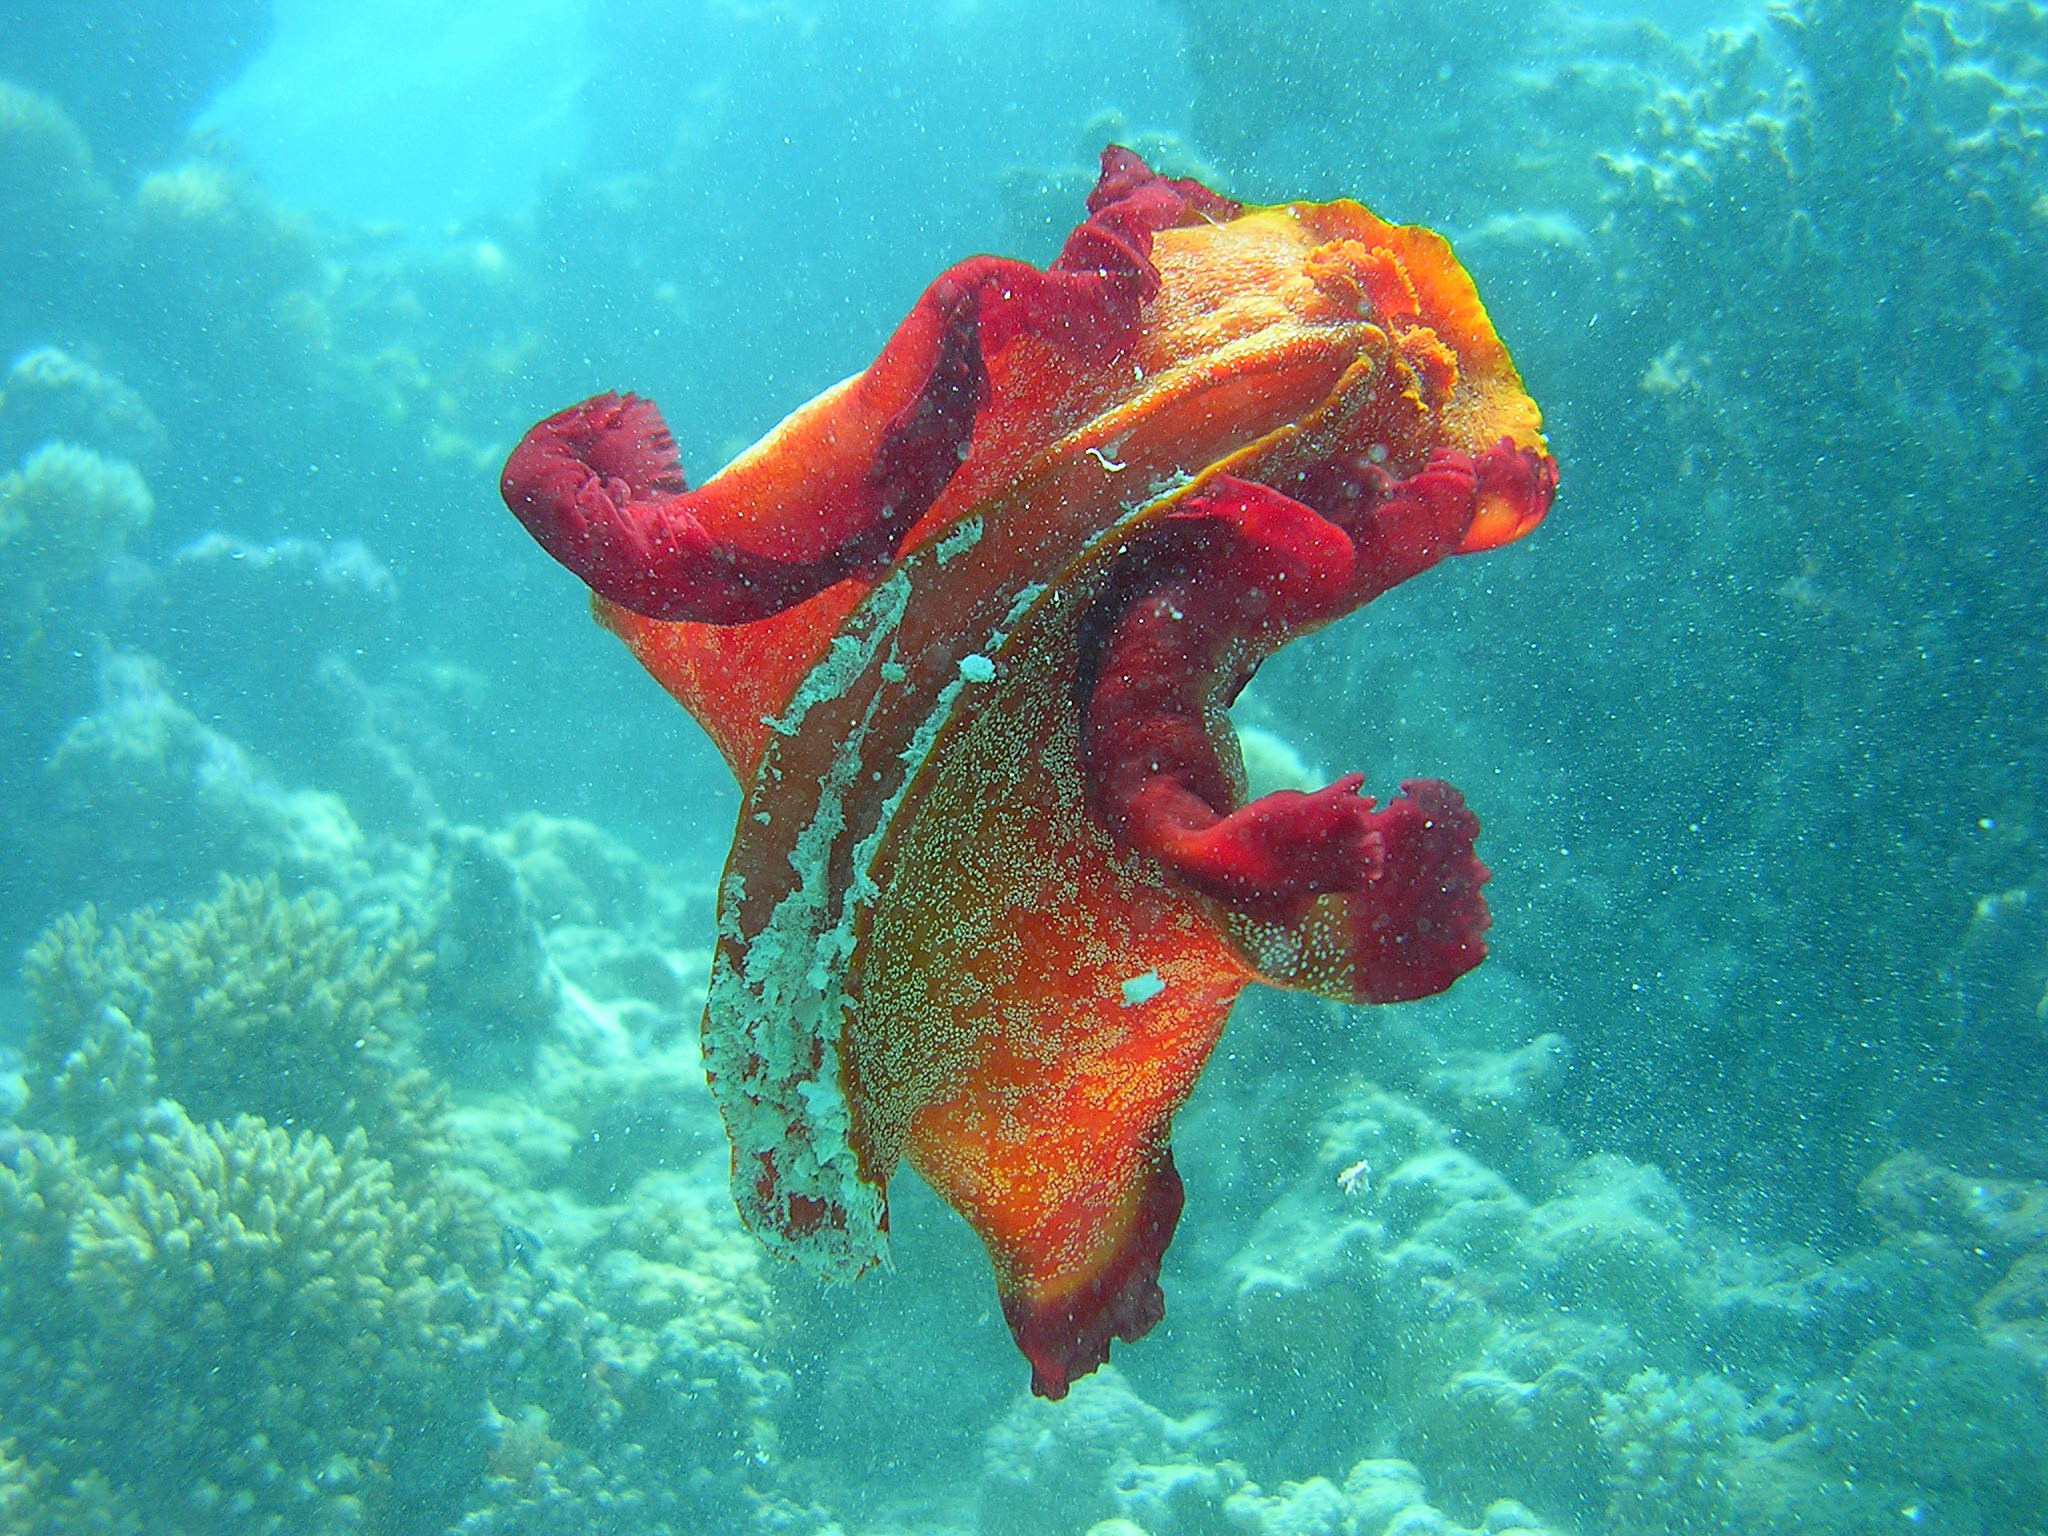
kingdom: Animalia
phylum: Mollusca
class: Gastropoda
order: Nudibranchia
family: Hexabranchidae
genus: Hexabranchus
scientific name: Hexabranchus sanguineus
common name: Spanish dancer
